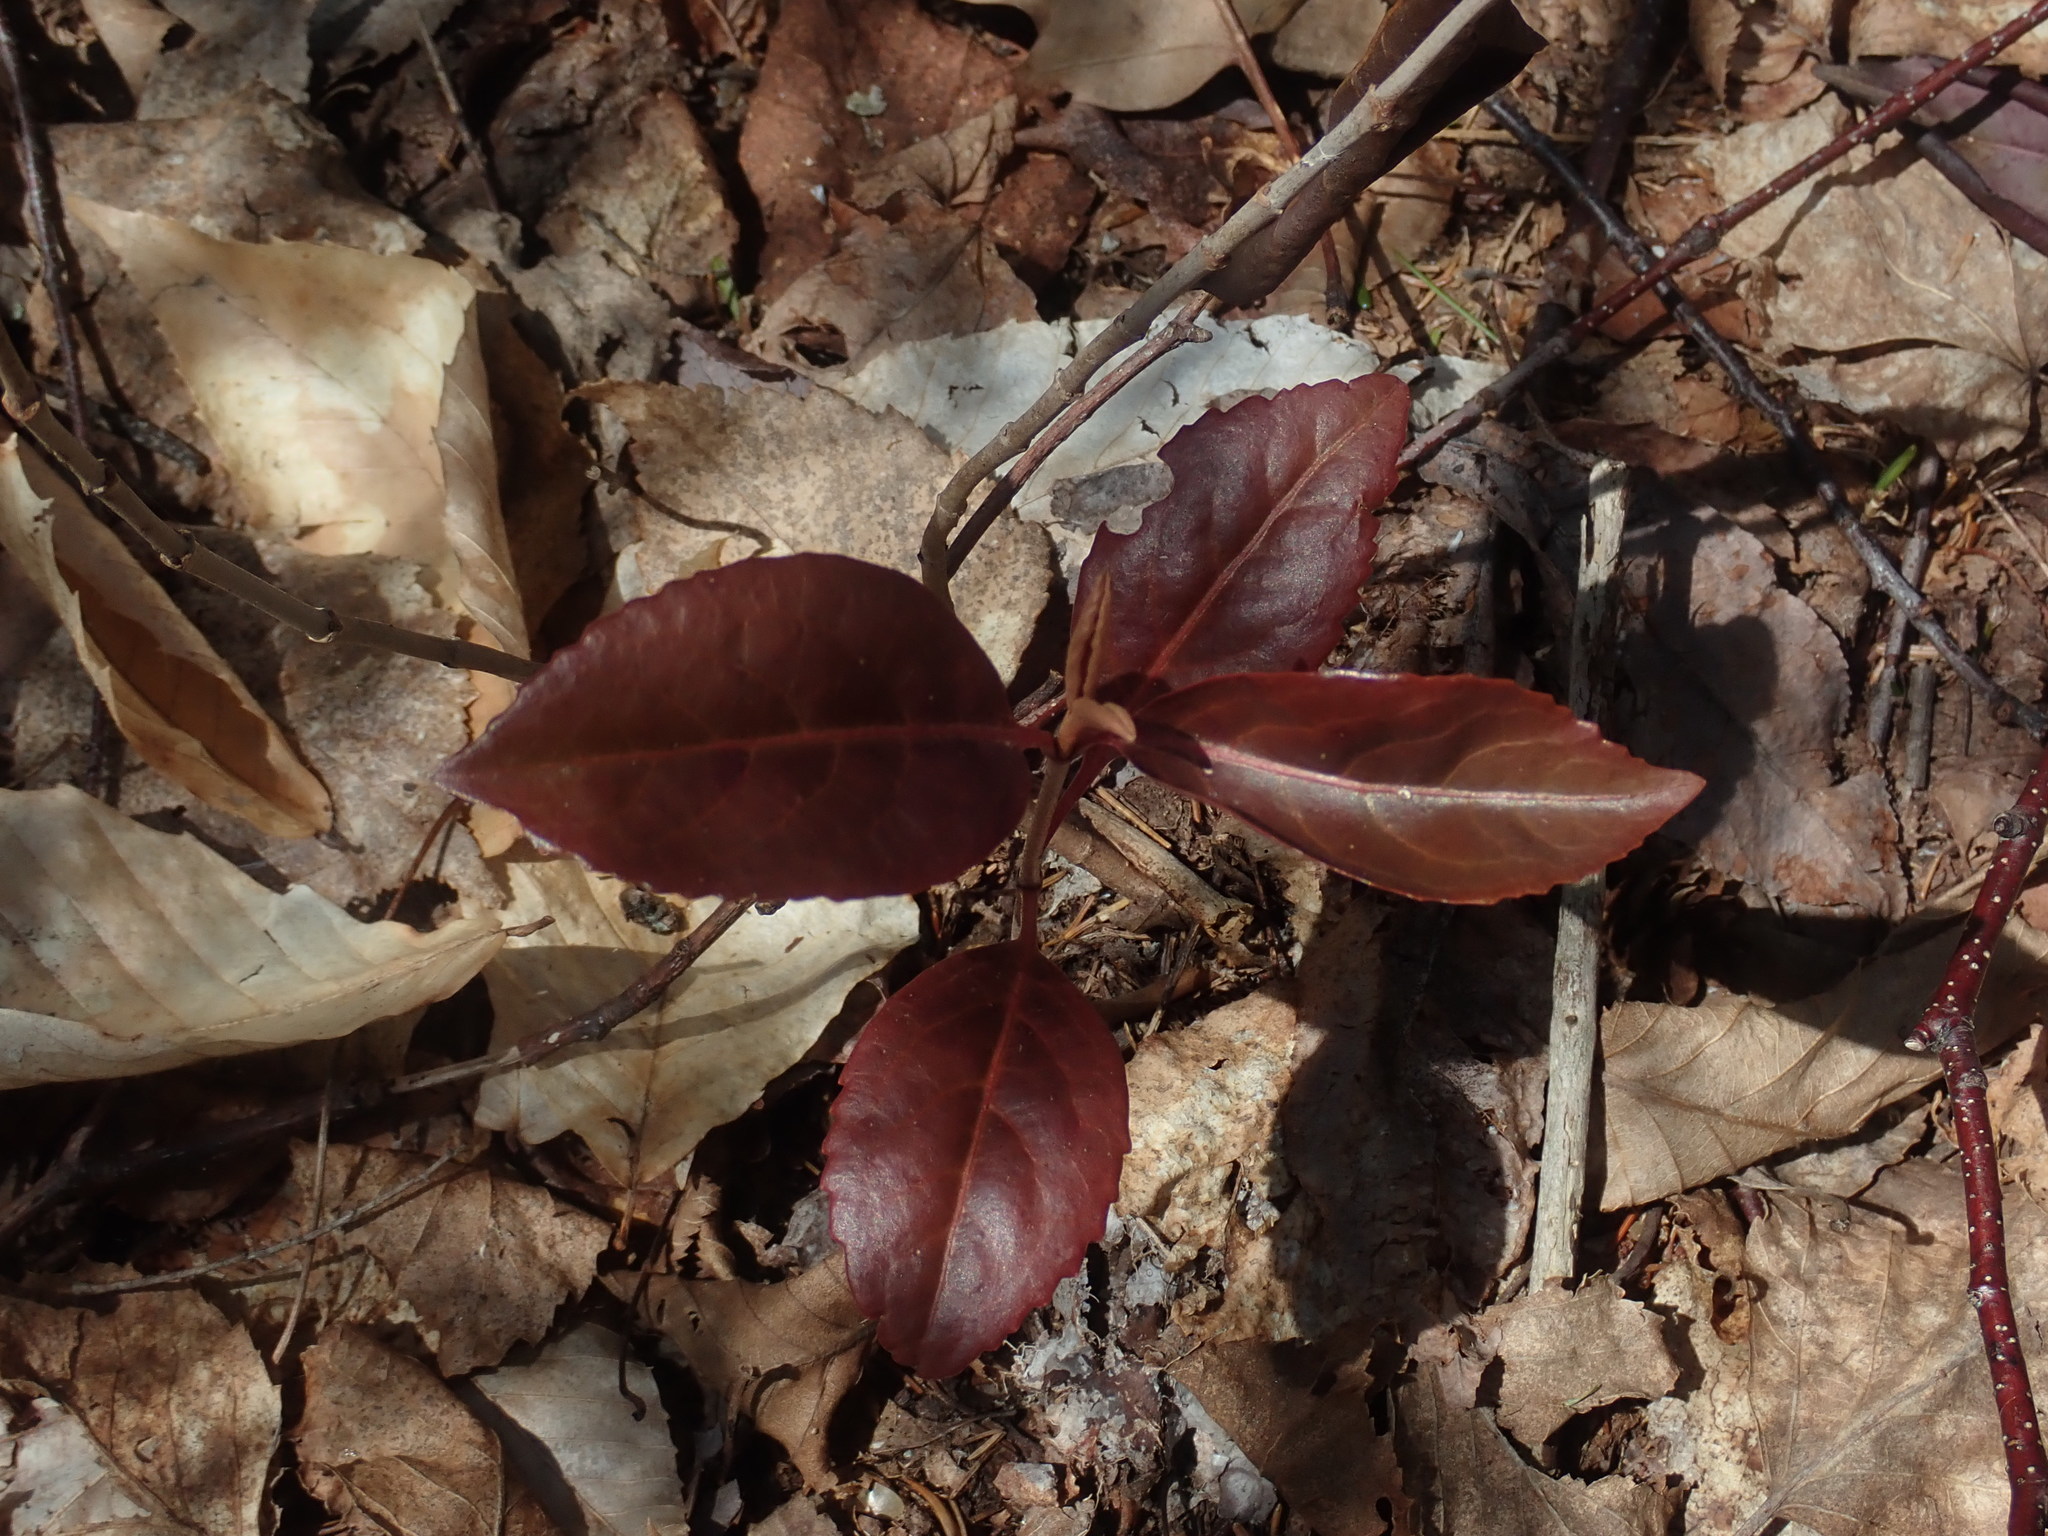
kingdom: Plantae
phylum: Tracheophyta
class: Magnoliopsida
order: Dipsacales
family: Viburnaceae
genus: Viburnum
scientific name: Viburnum cassinoides
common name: Swamp haw
